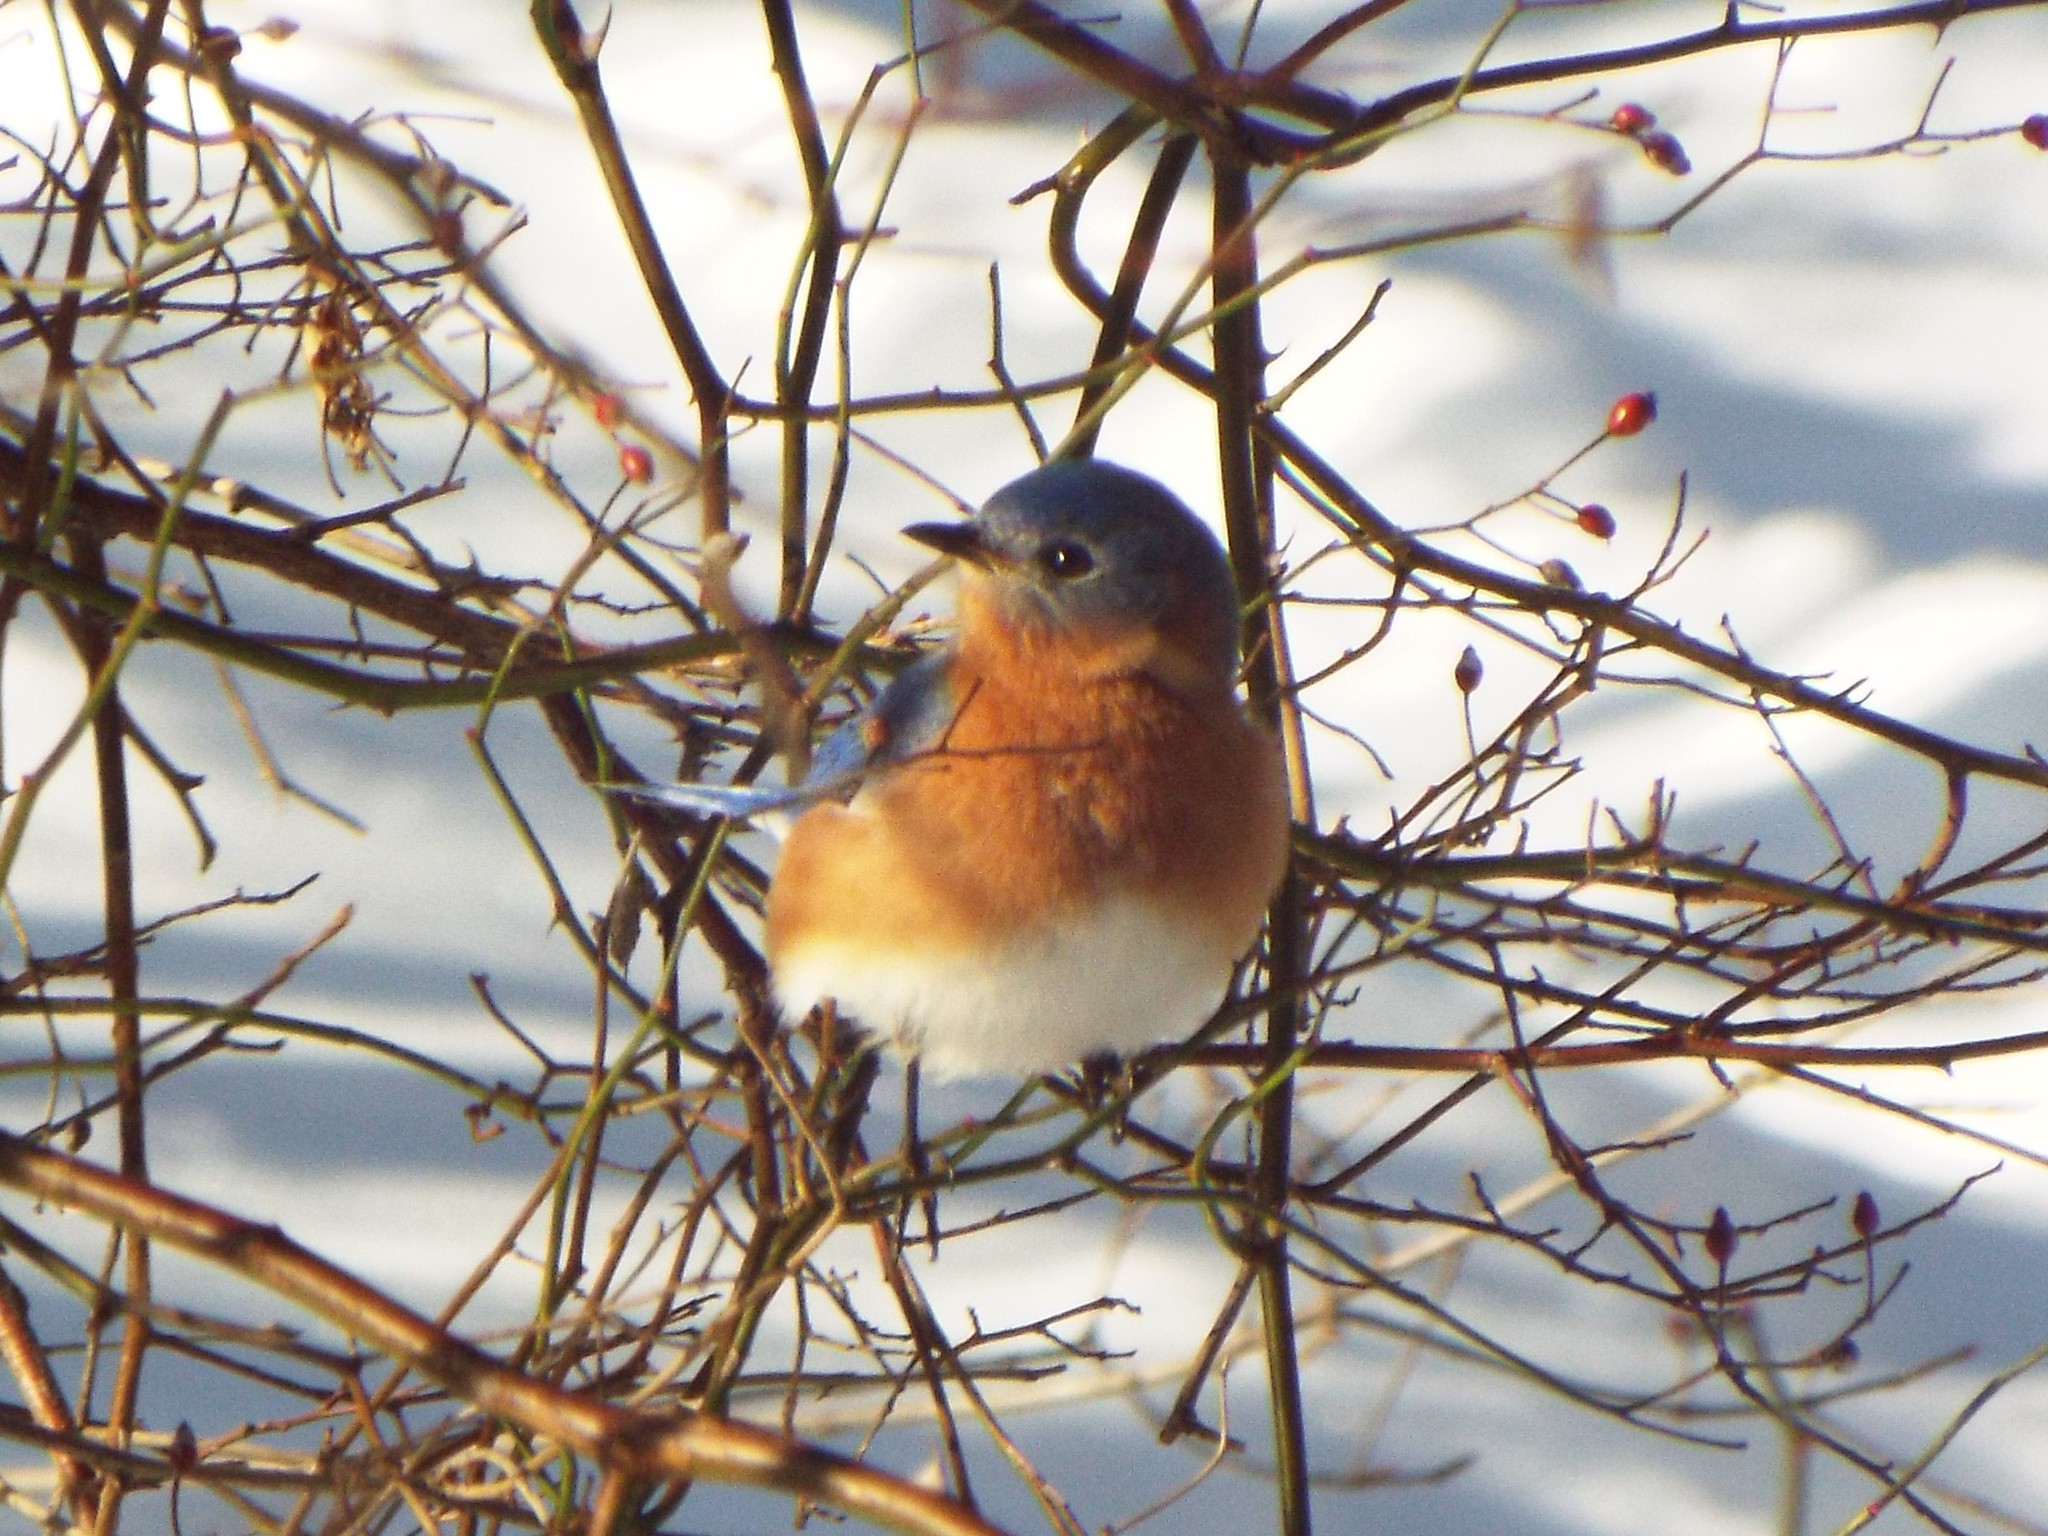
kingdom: Animalia
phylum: Chordata
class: Aves
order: Passeriformes
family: Turdidae
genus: Sialia
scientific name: Sialia sialis
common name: Eastern bluebird
